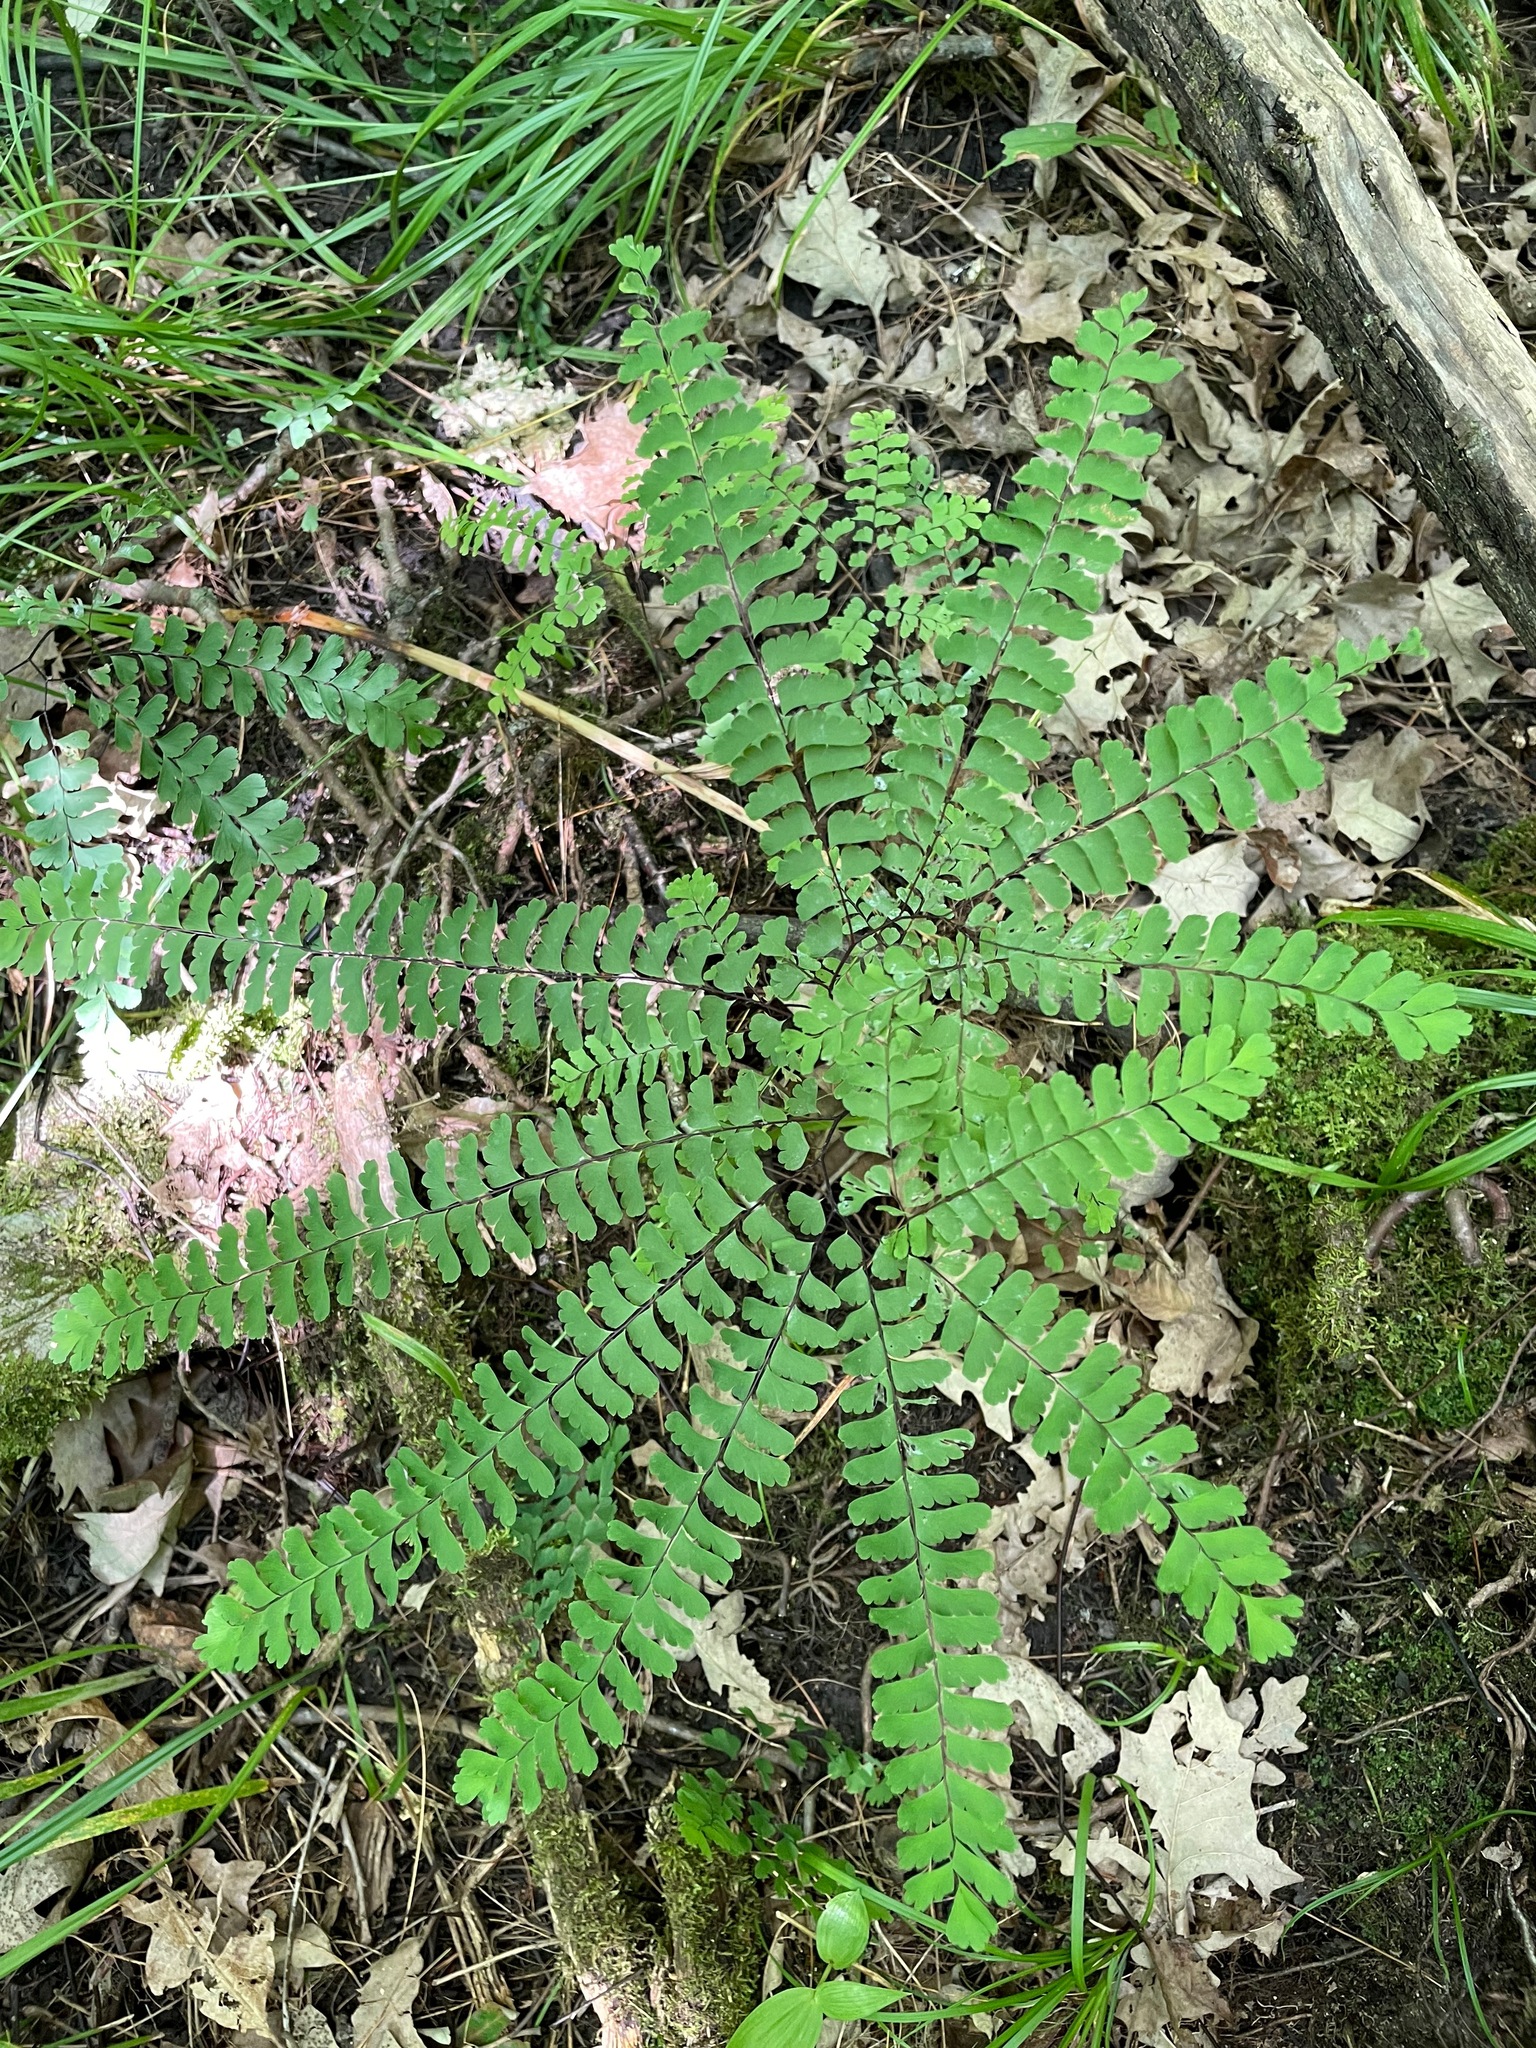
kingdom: Plantae
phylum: Tracheophyta
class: Polypodiopsida
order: Polypodiales
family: Pteridaceae
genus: Adiantum
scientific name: Adiantum pedatum
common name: Five-finger fern
